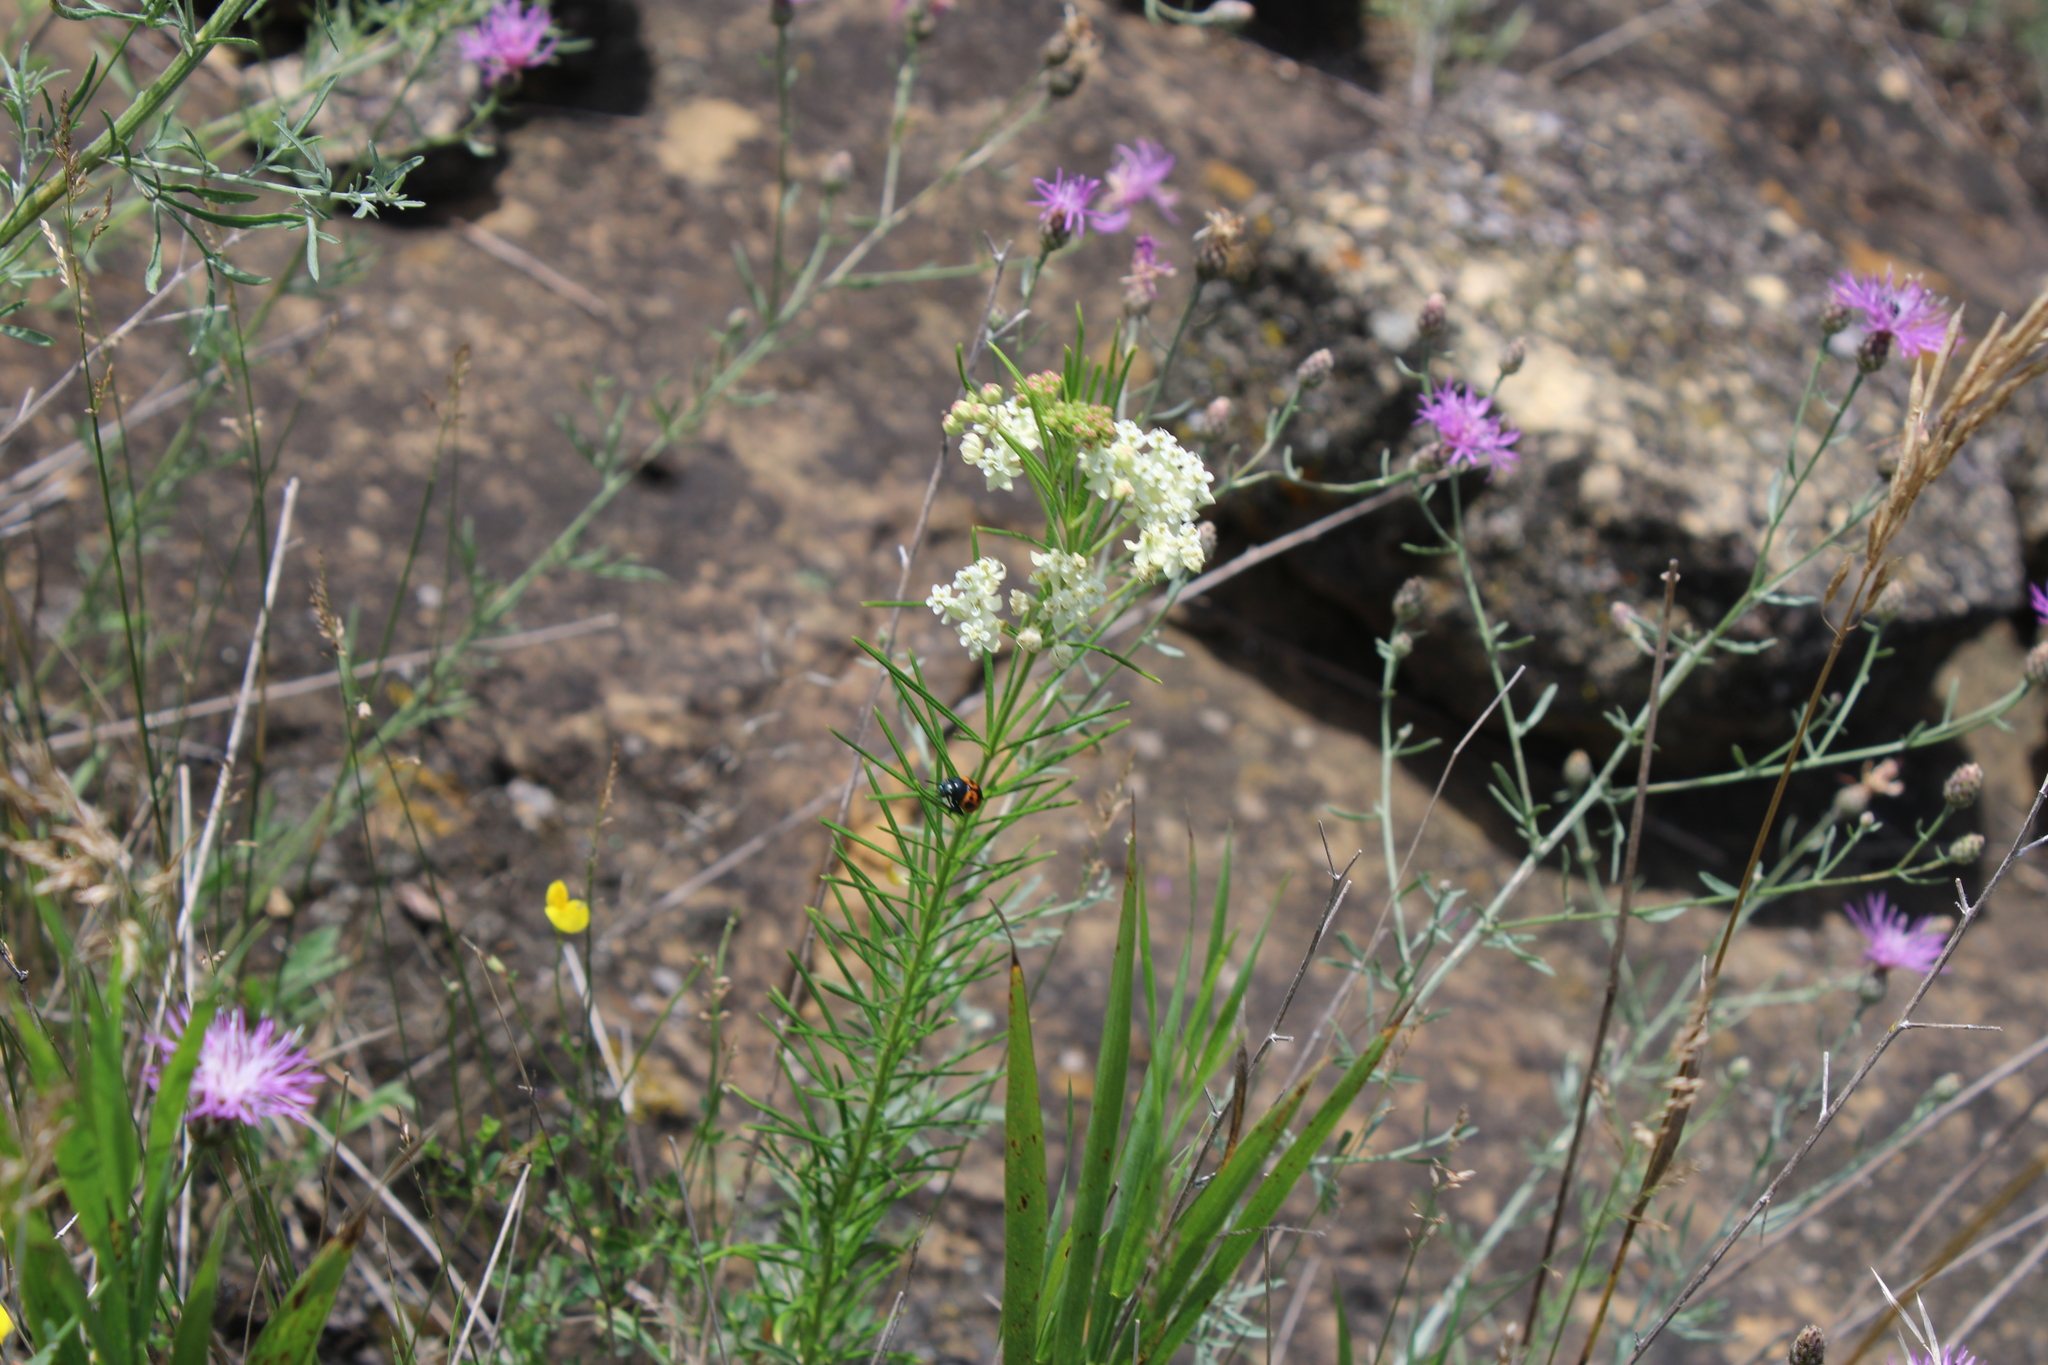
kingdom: Plantae
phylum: Tracheophyta
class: Magnoliopsida
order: Gentianales
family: Apocynaceae
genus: Asclepias
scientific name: Asclepias verticillata
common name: Eastern whorled milkweed
